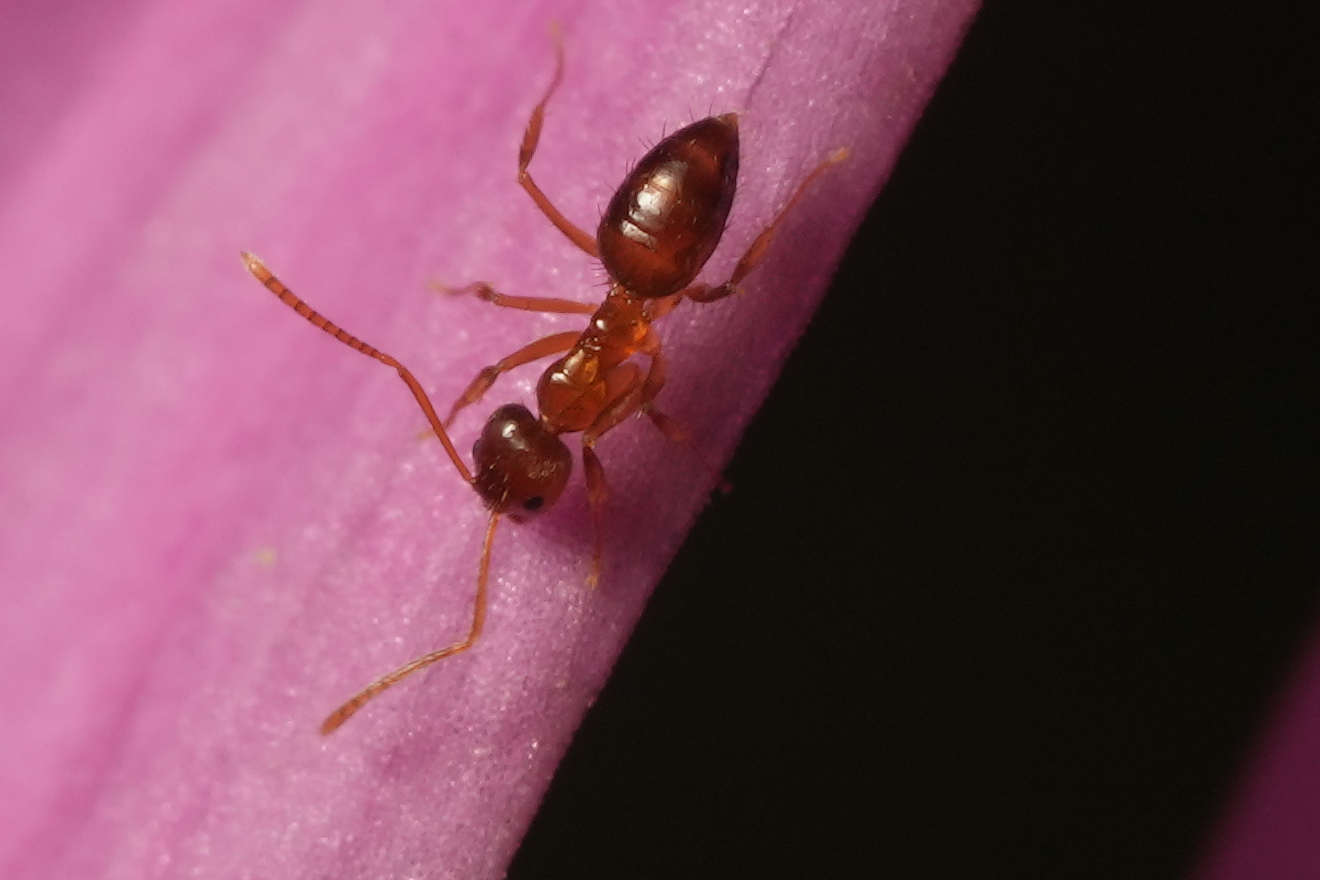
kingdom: Animalia
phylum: Arthropoda
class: Insecta
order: Hymenoptera
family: Formicidae
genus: Paratrechina
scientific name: Paratrechina flavipes
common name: Eastern asian formicine ant
